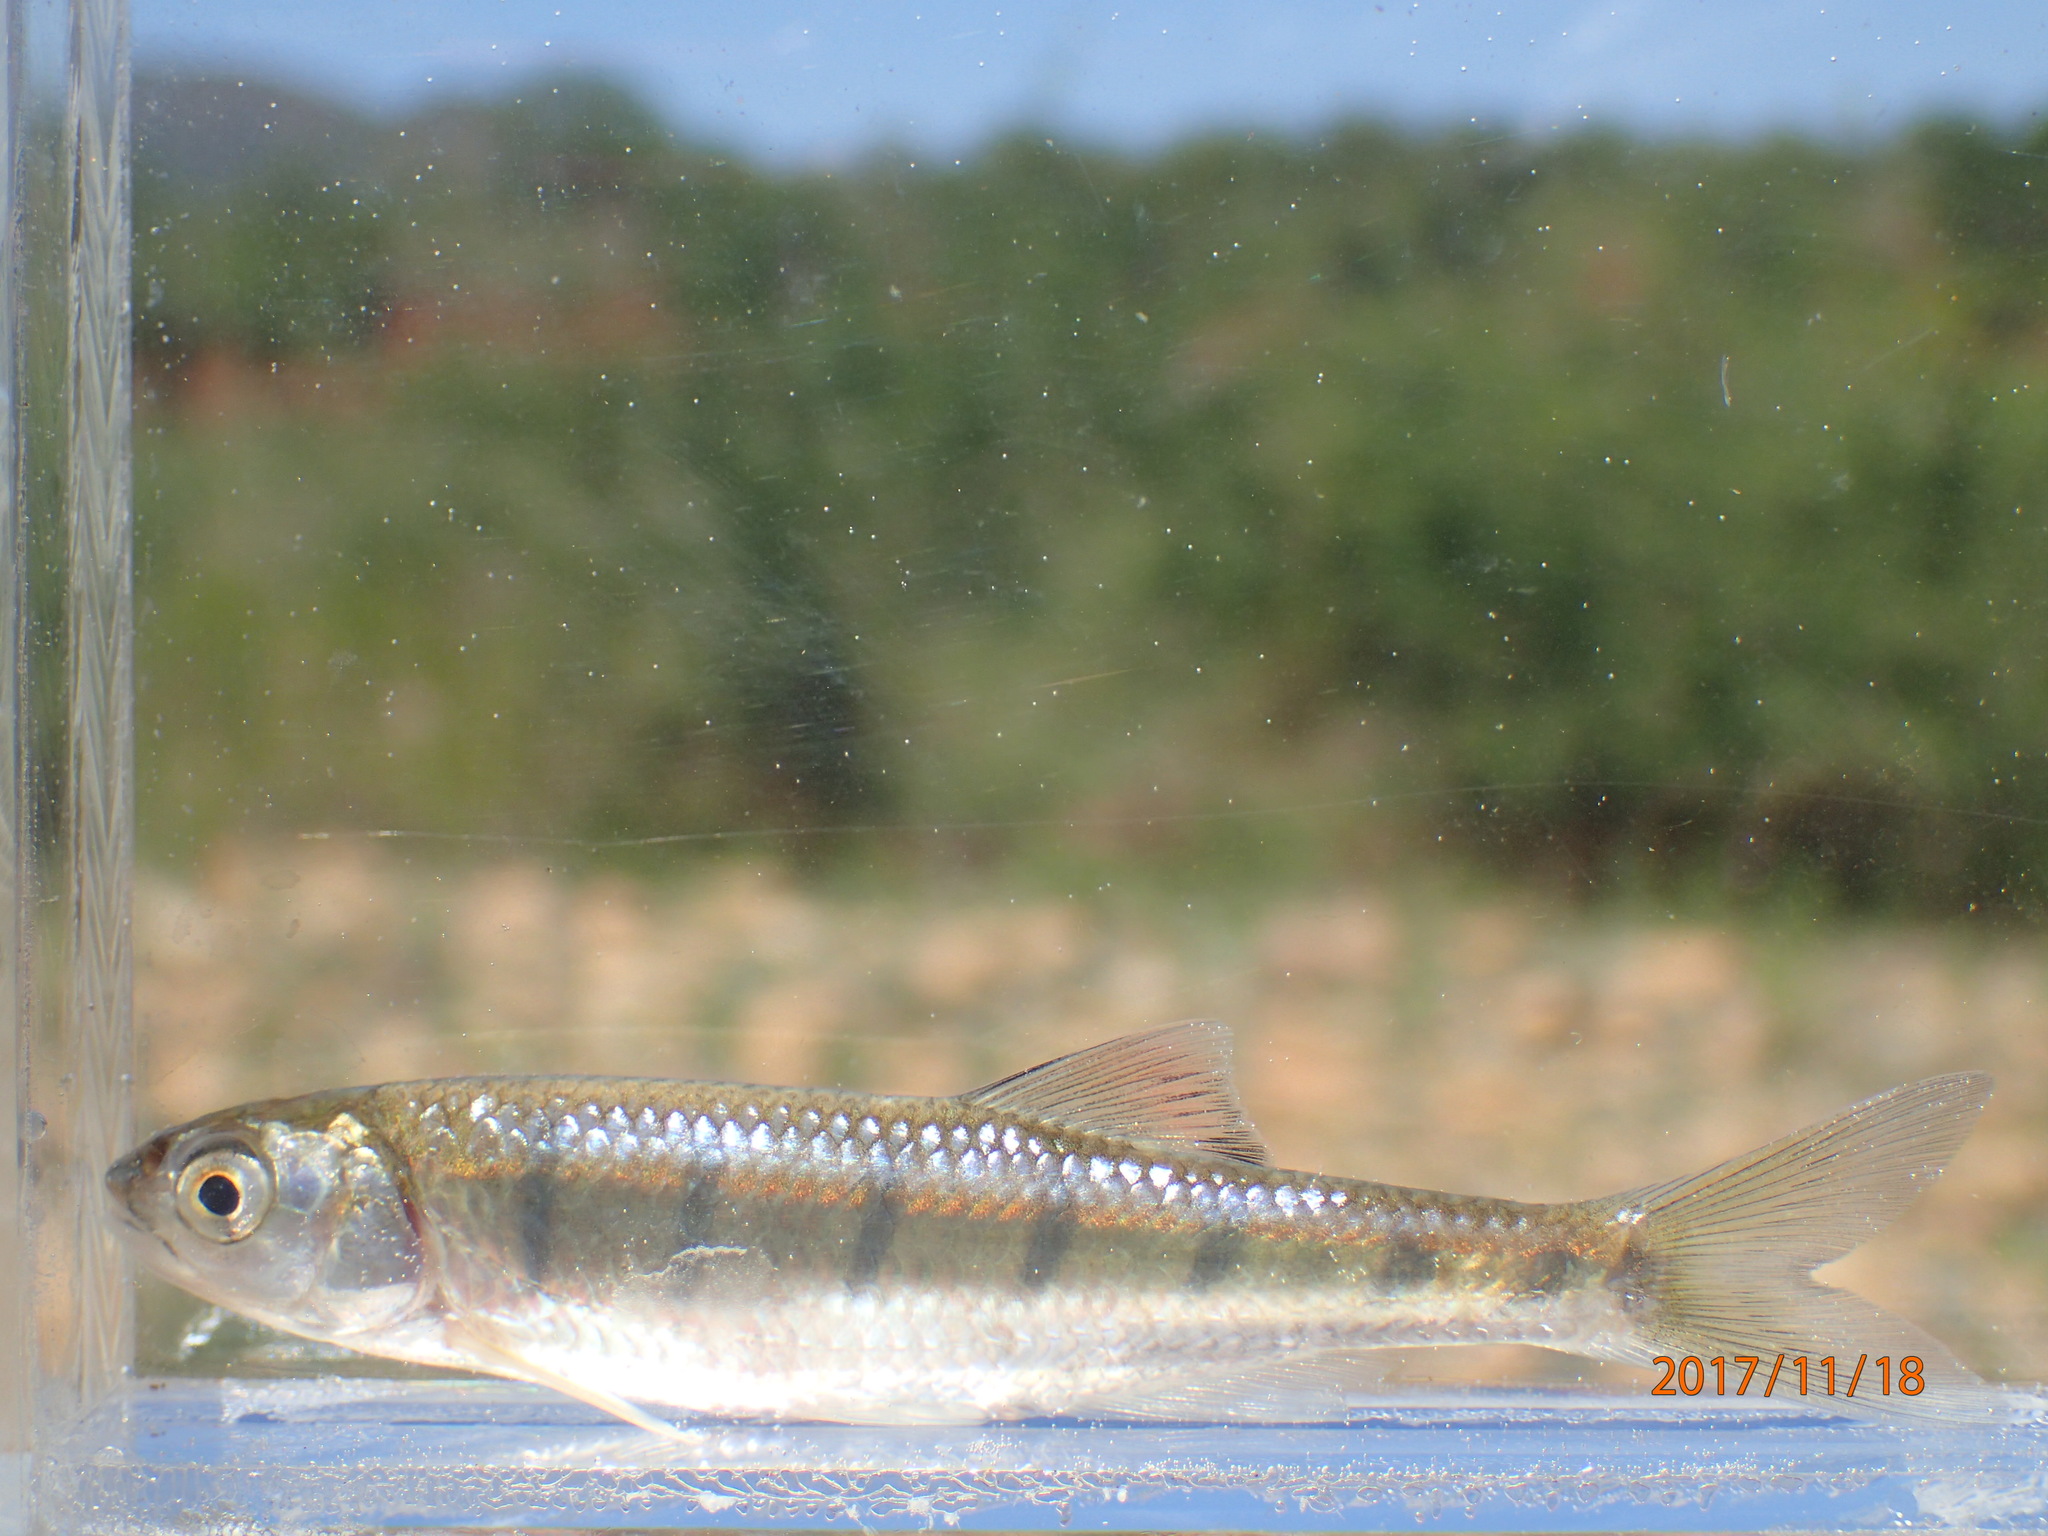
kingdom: Animalia
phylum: Chordata
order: Cypriniformes
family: Cyprinidae
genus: Opsaridium
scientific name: Opsaridium peringueyi
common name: Southern barred minnow
